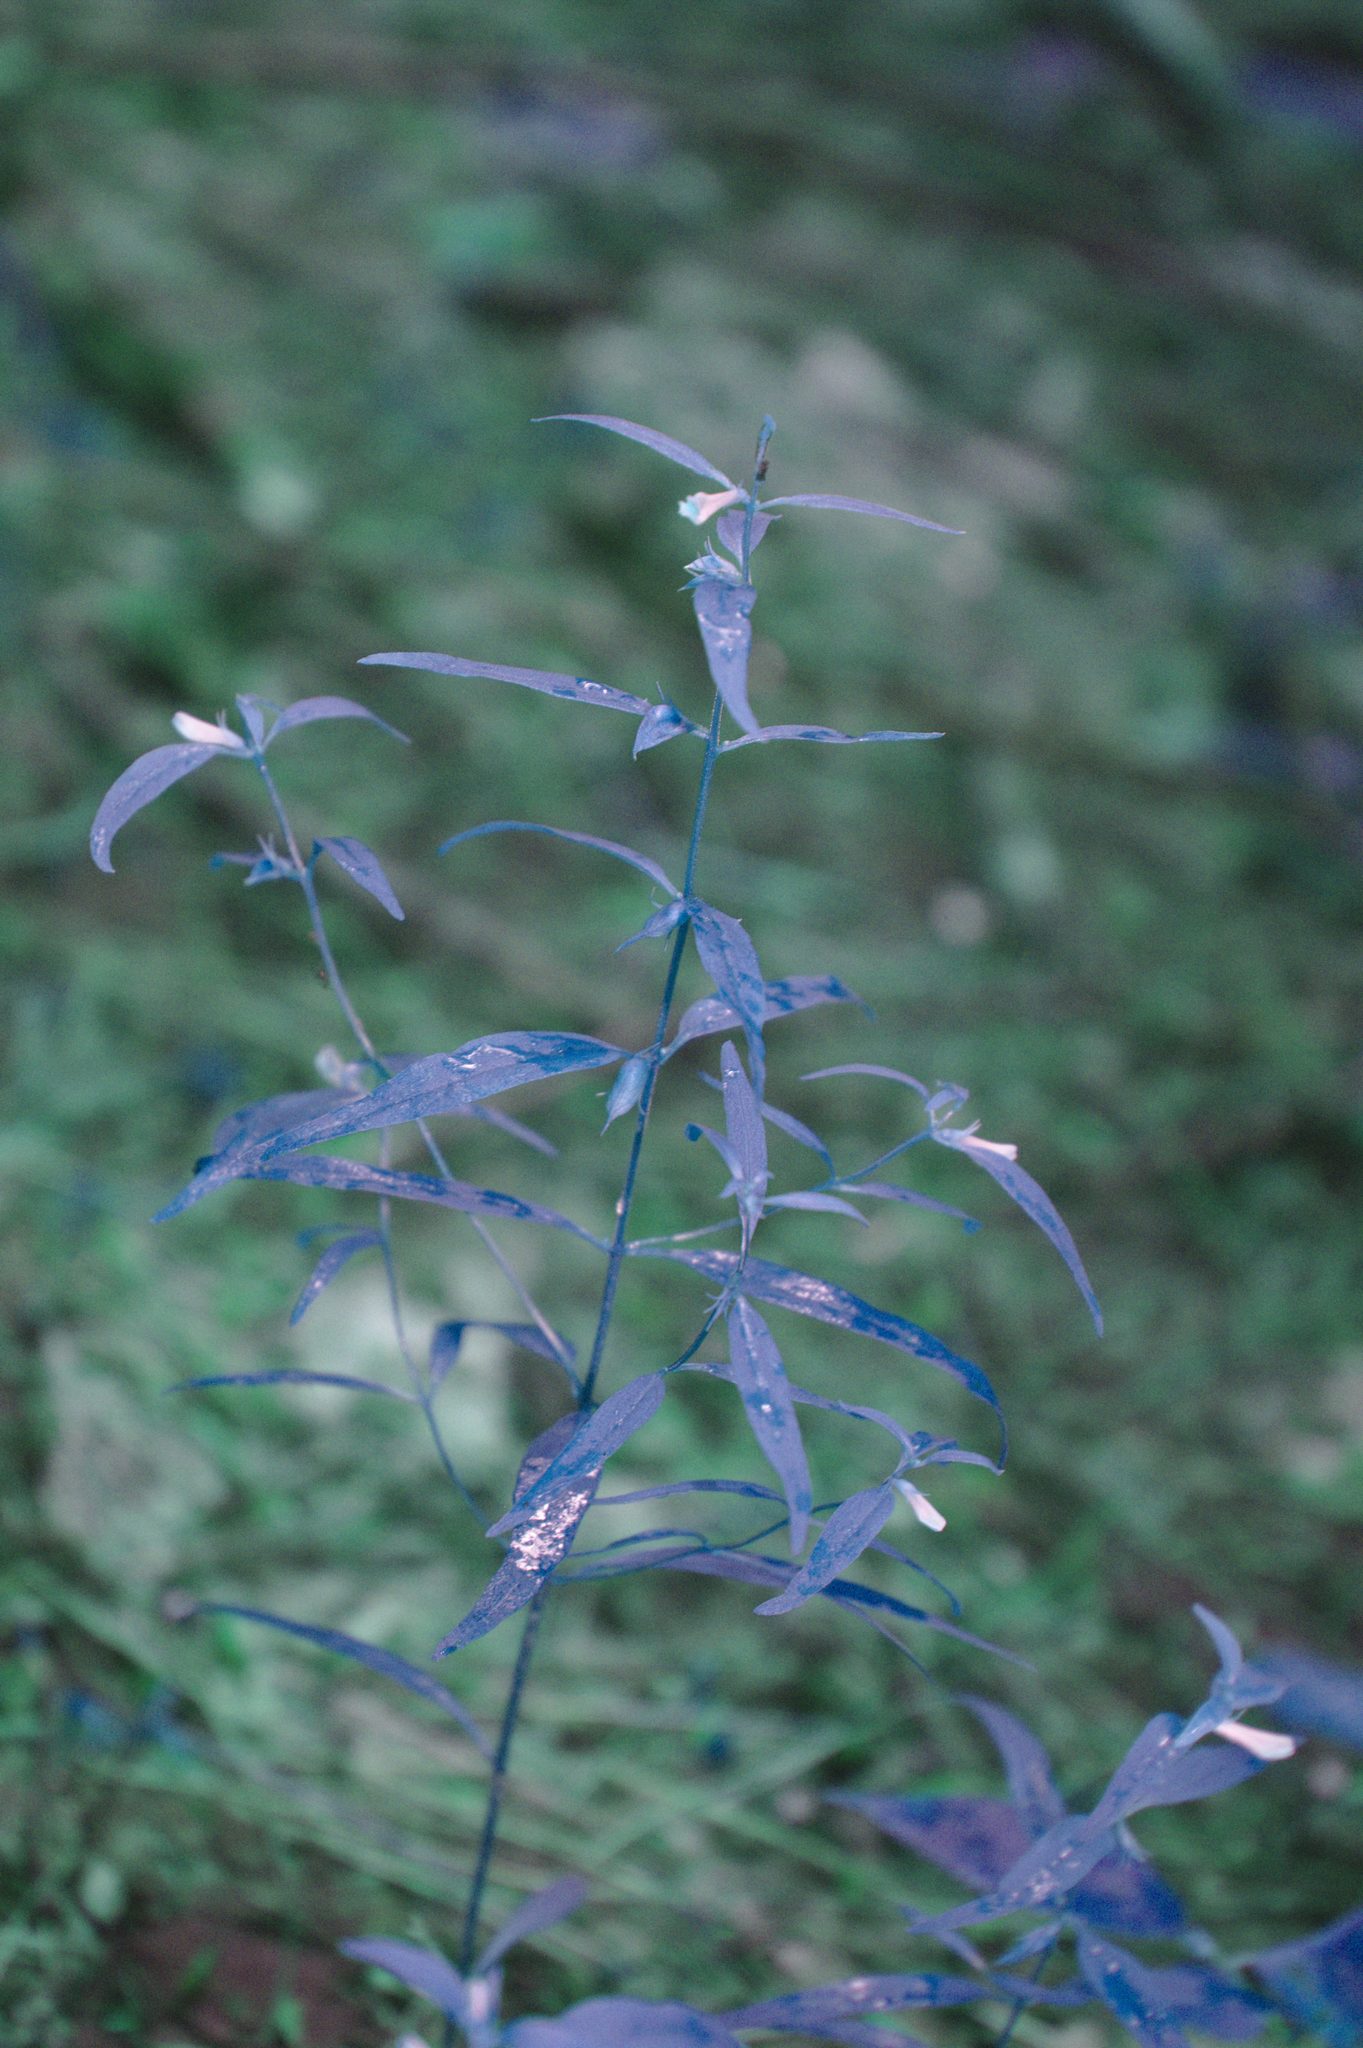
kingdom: Plantae
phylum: Tracheophyta
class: Magnoliopsida
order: Lamiales
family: Orobanchaceae
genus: Melampyrum
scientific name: Melampyrum lineare
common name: American cow-wheat
